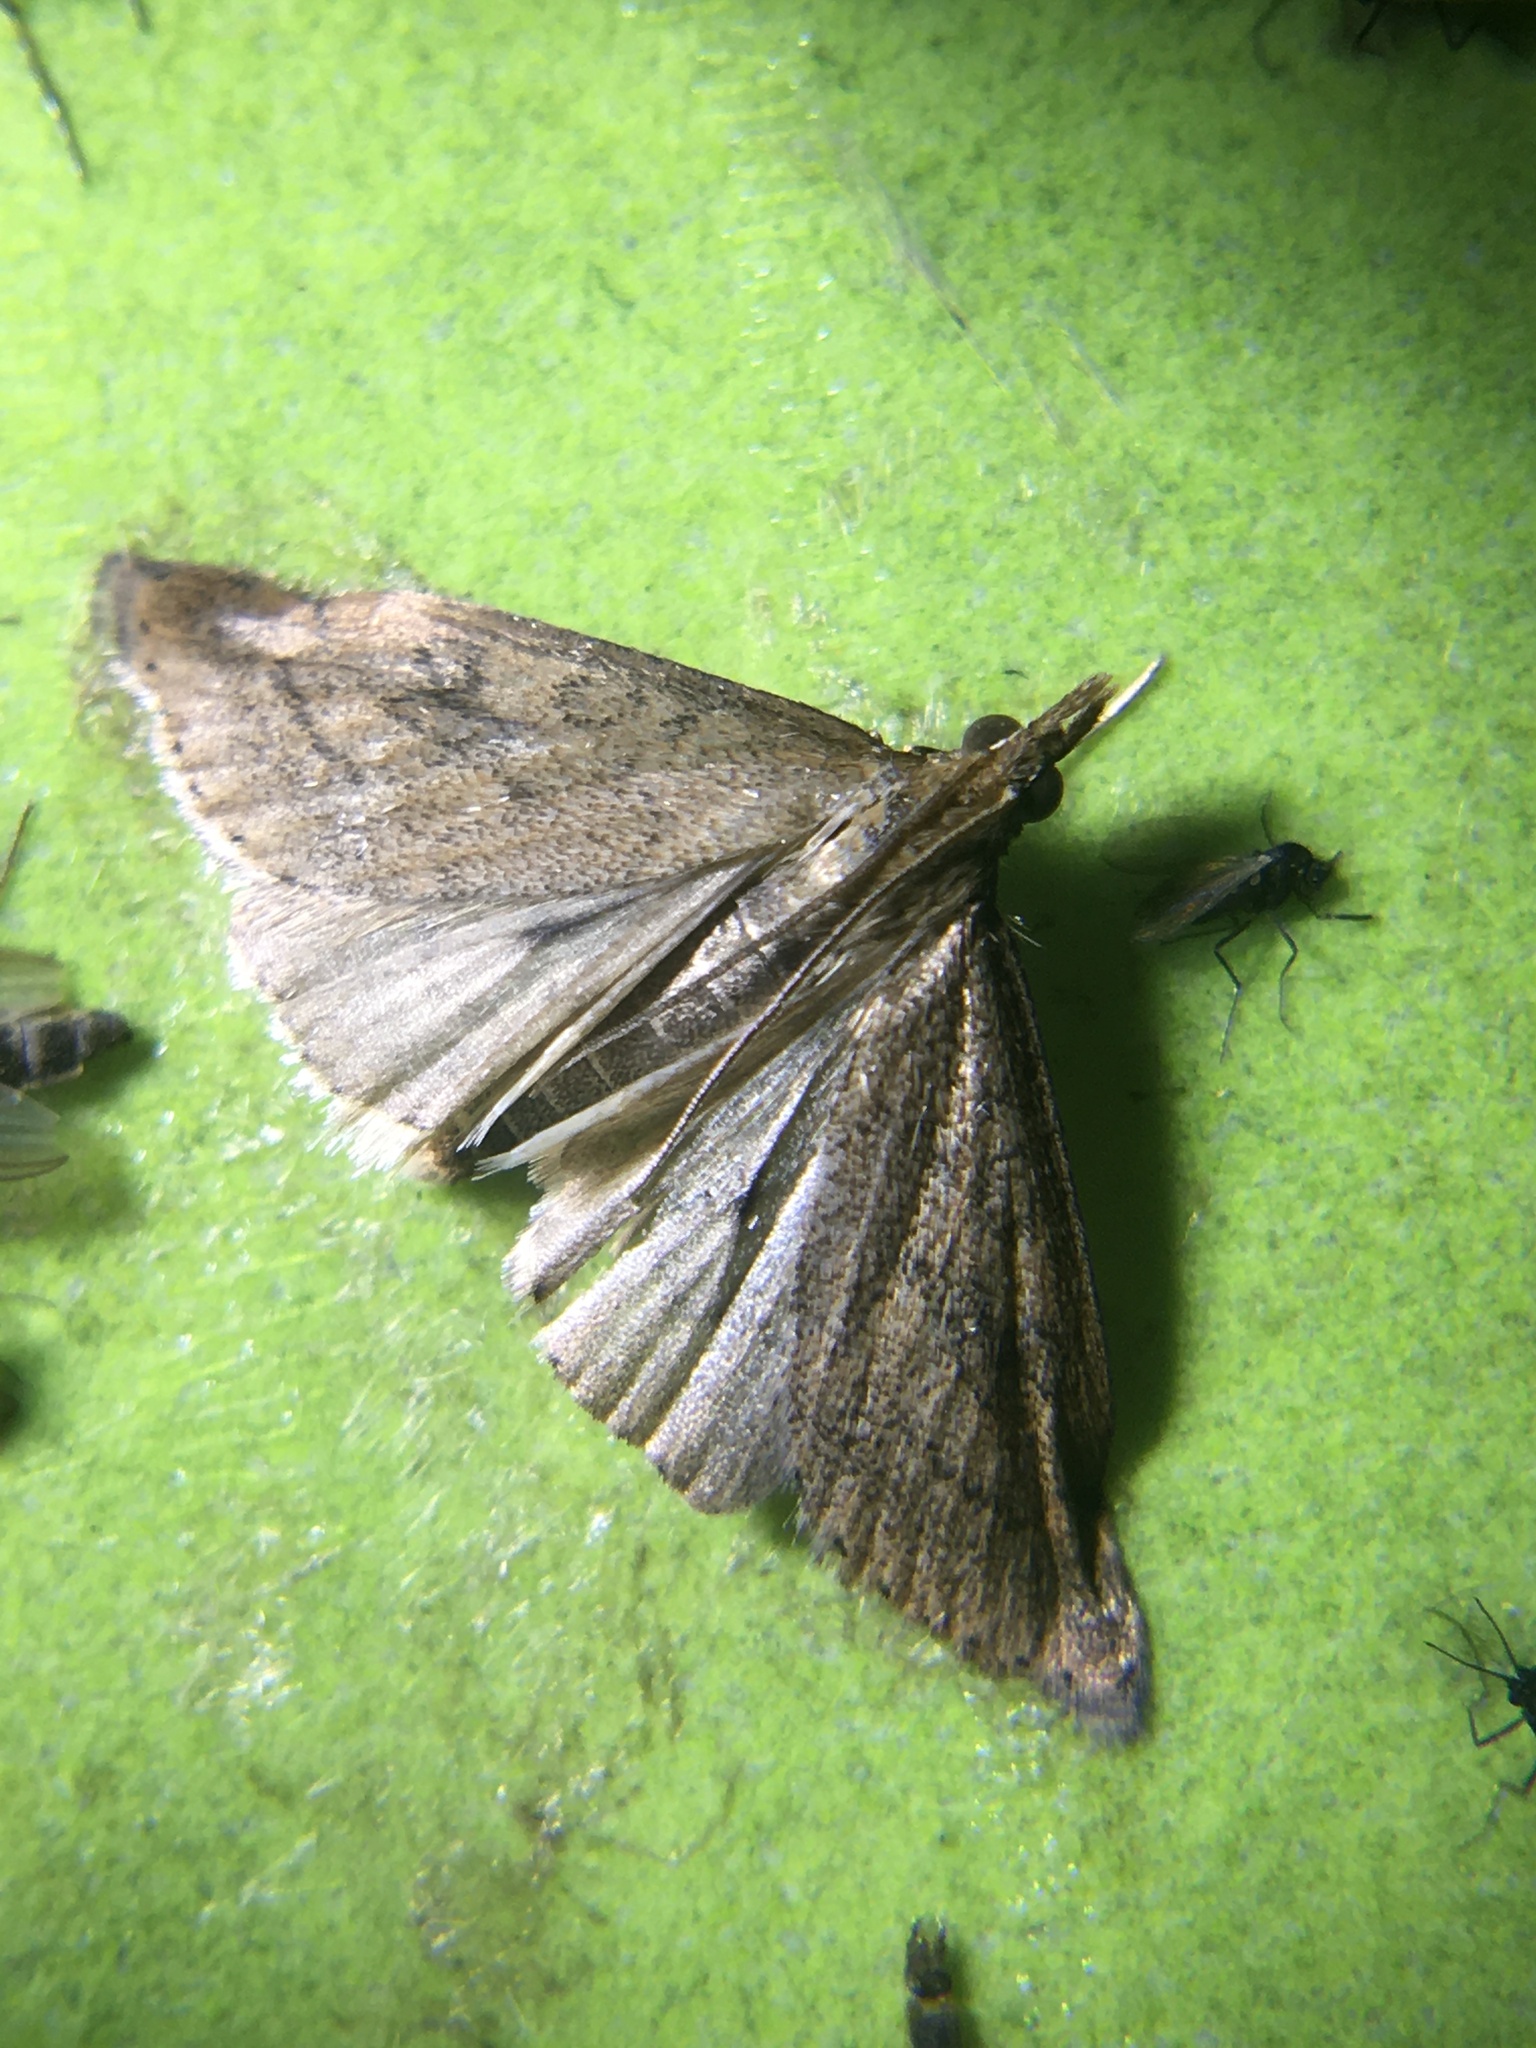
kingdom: Animalia
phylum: Arthropoda
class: Insecta
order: Lepidoptera
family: Crambidae
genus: Udea
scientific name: Udea rubigalis
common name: Celery leaftier moth
